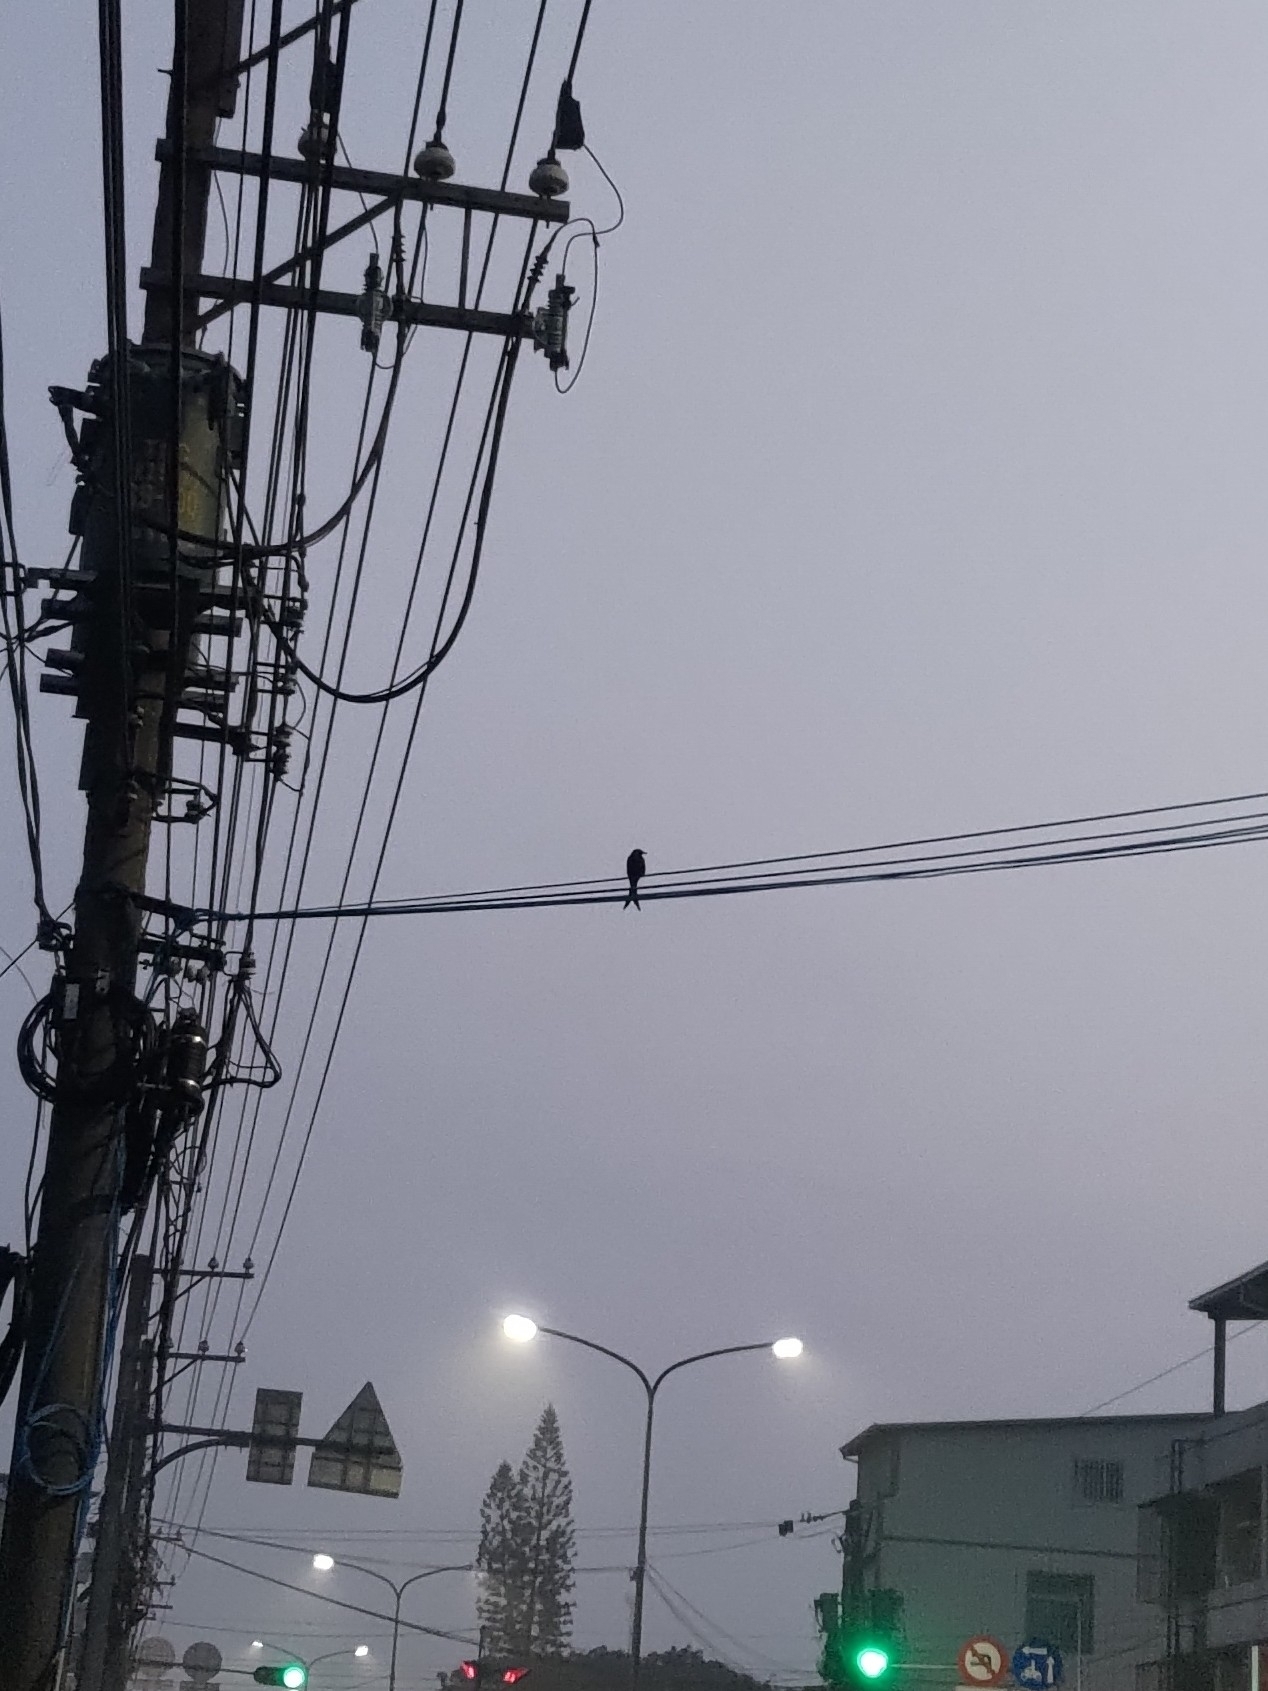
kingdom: Animalia
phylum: Chordata
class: Aves
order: Passeriformes
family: Dicruridae
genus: Dicrurus
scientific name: Dicrurus macrocercus
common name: Black drongo
